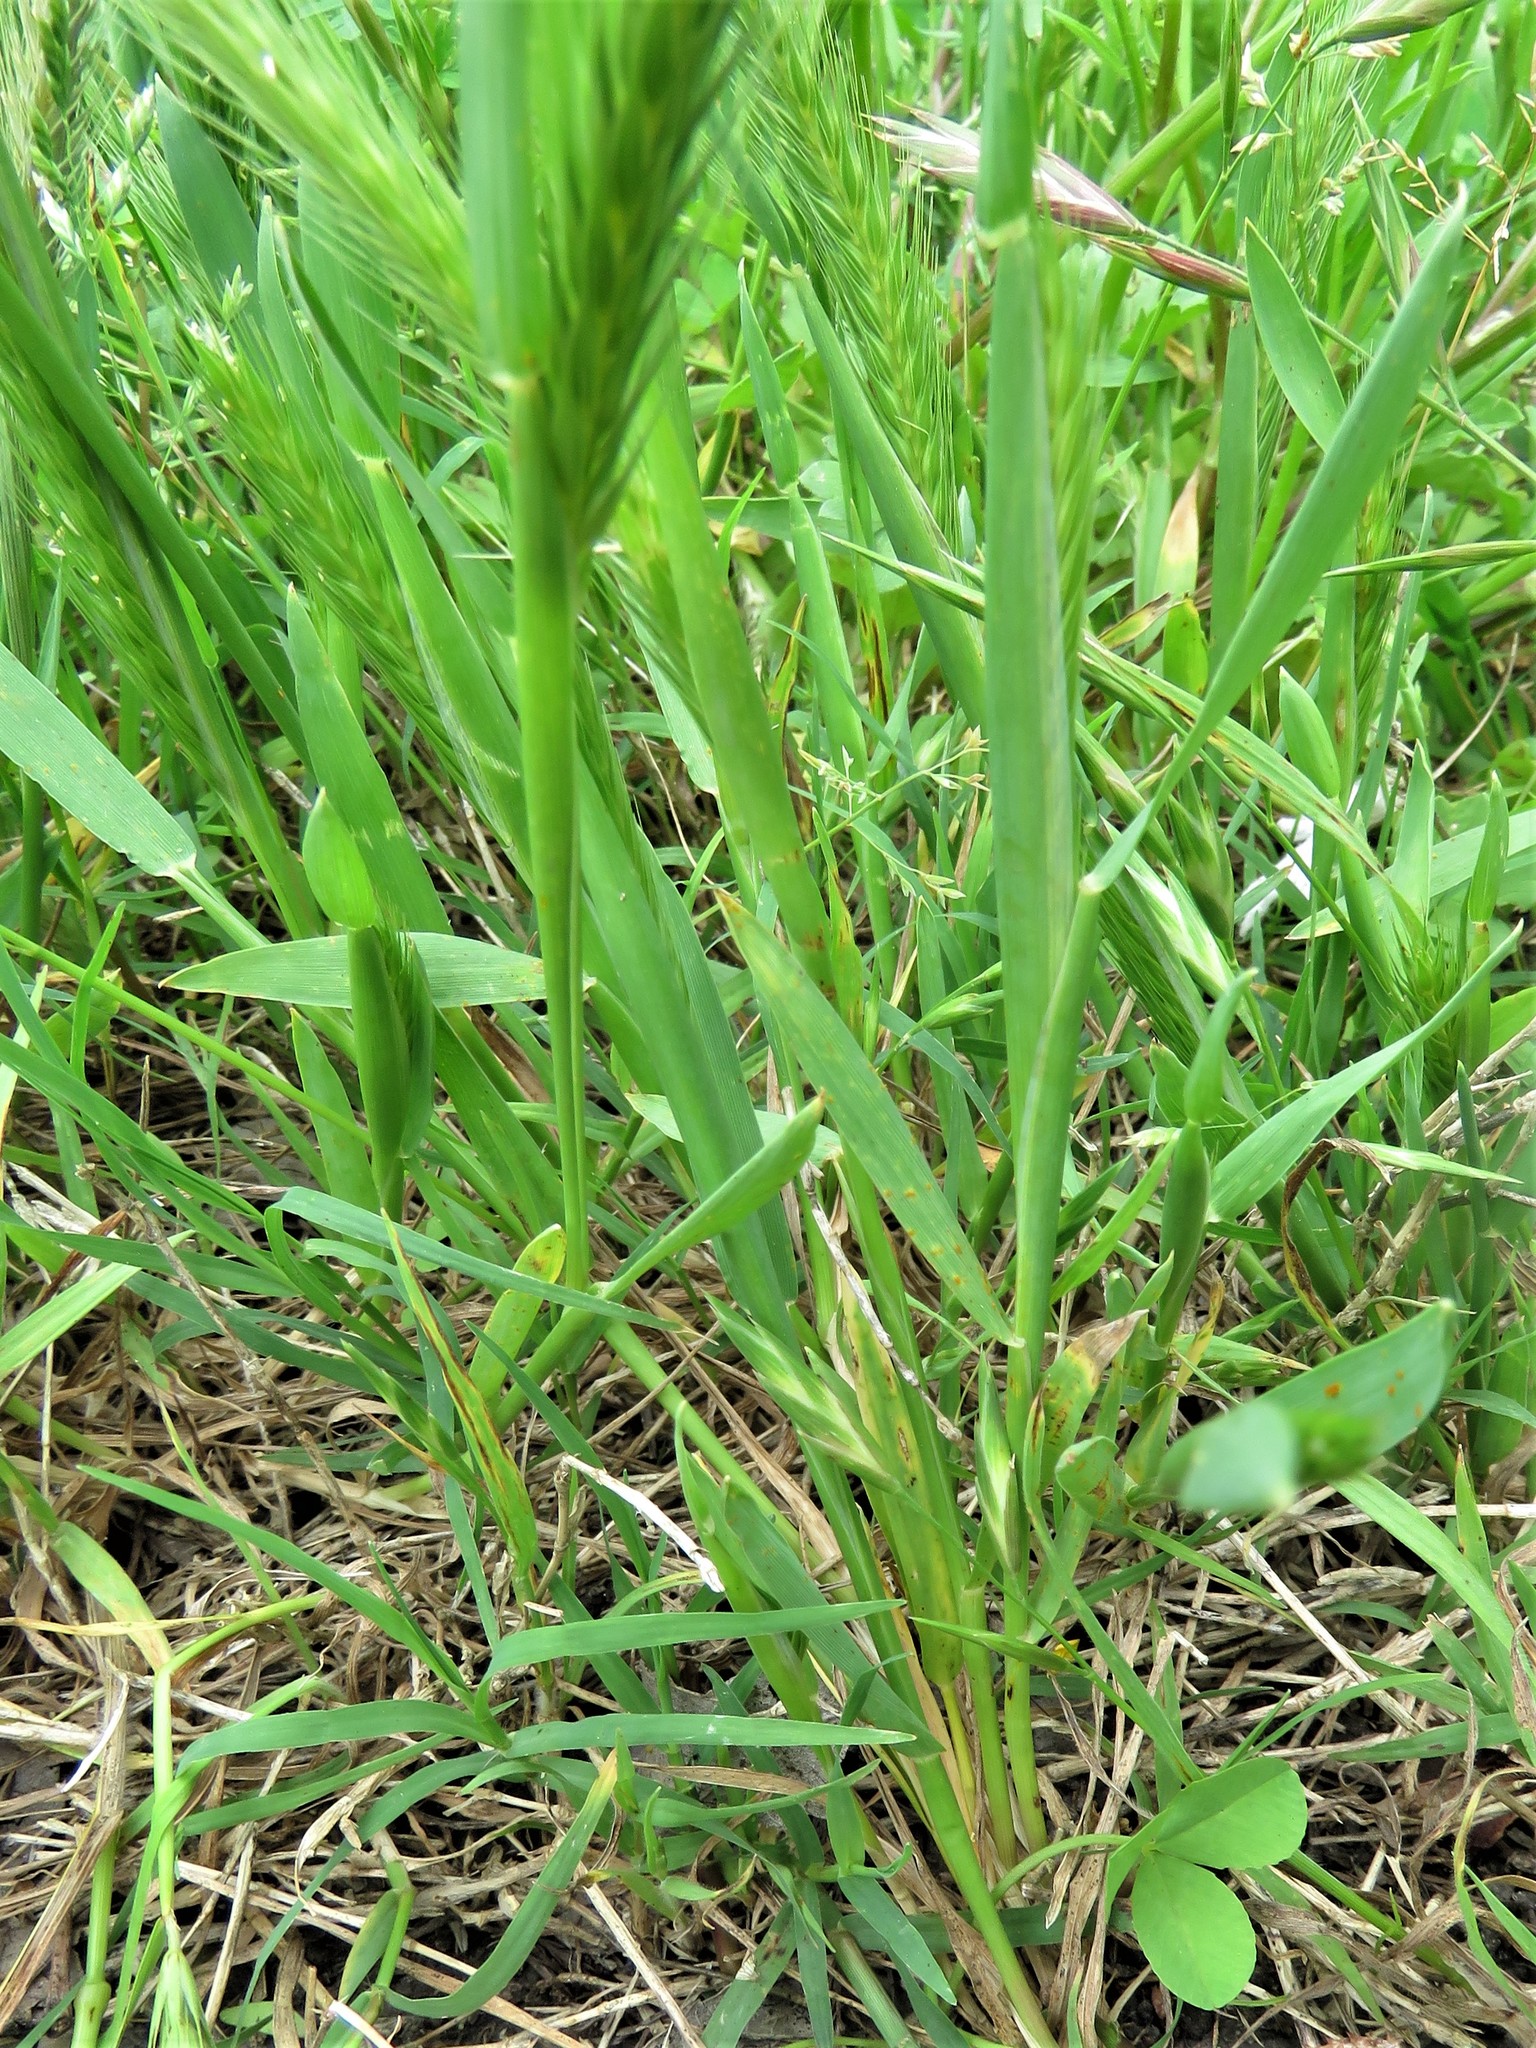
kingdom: Plantae
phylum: Tracheophyta
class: Liliopsida
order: Poales
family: Poaceae
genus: Hordeum
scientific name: Hordeum pusillum
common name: Little barley
